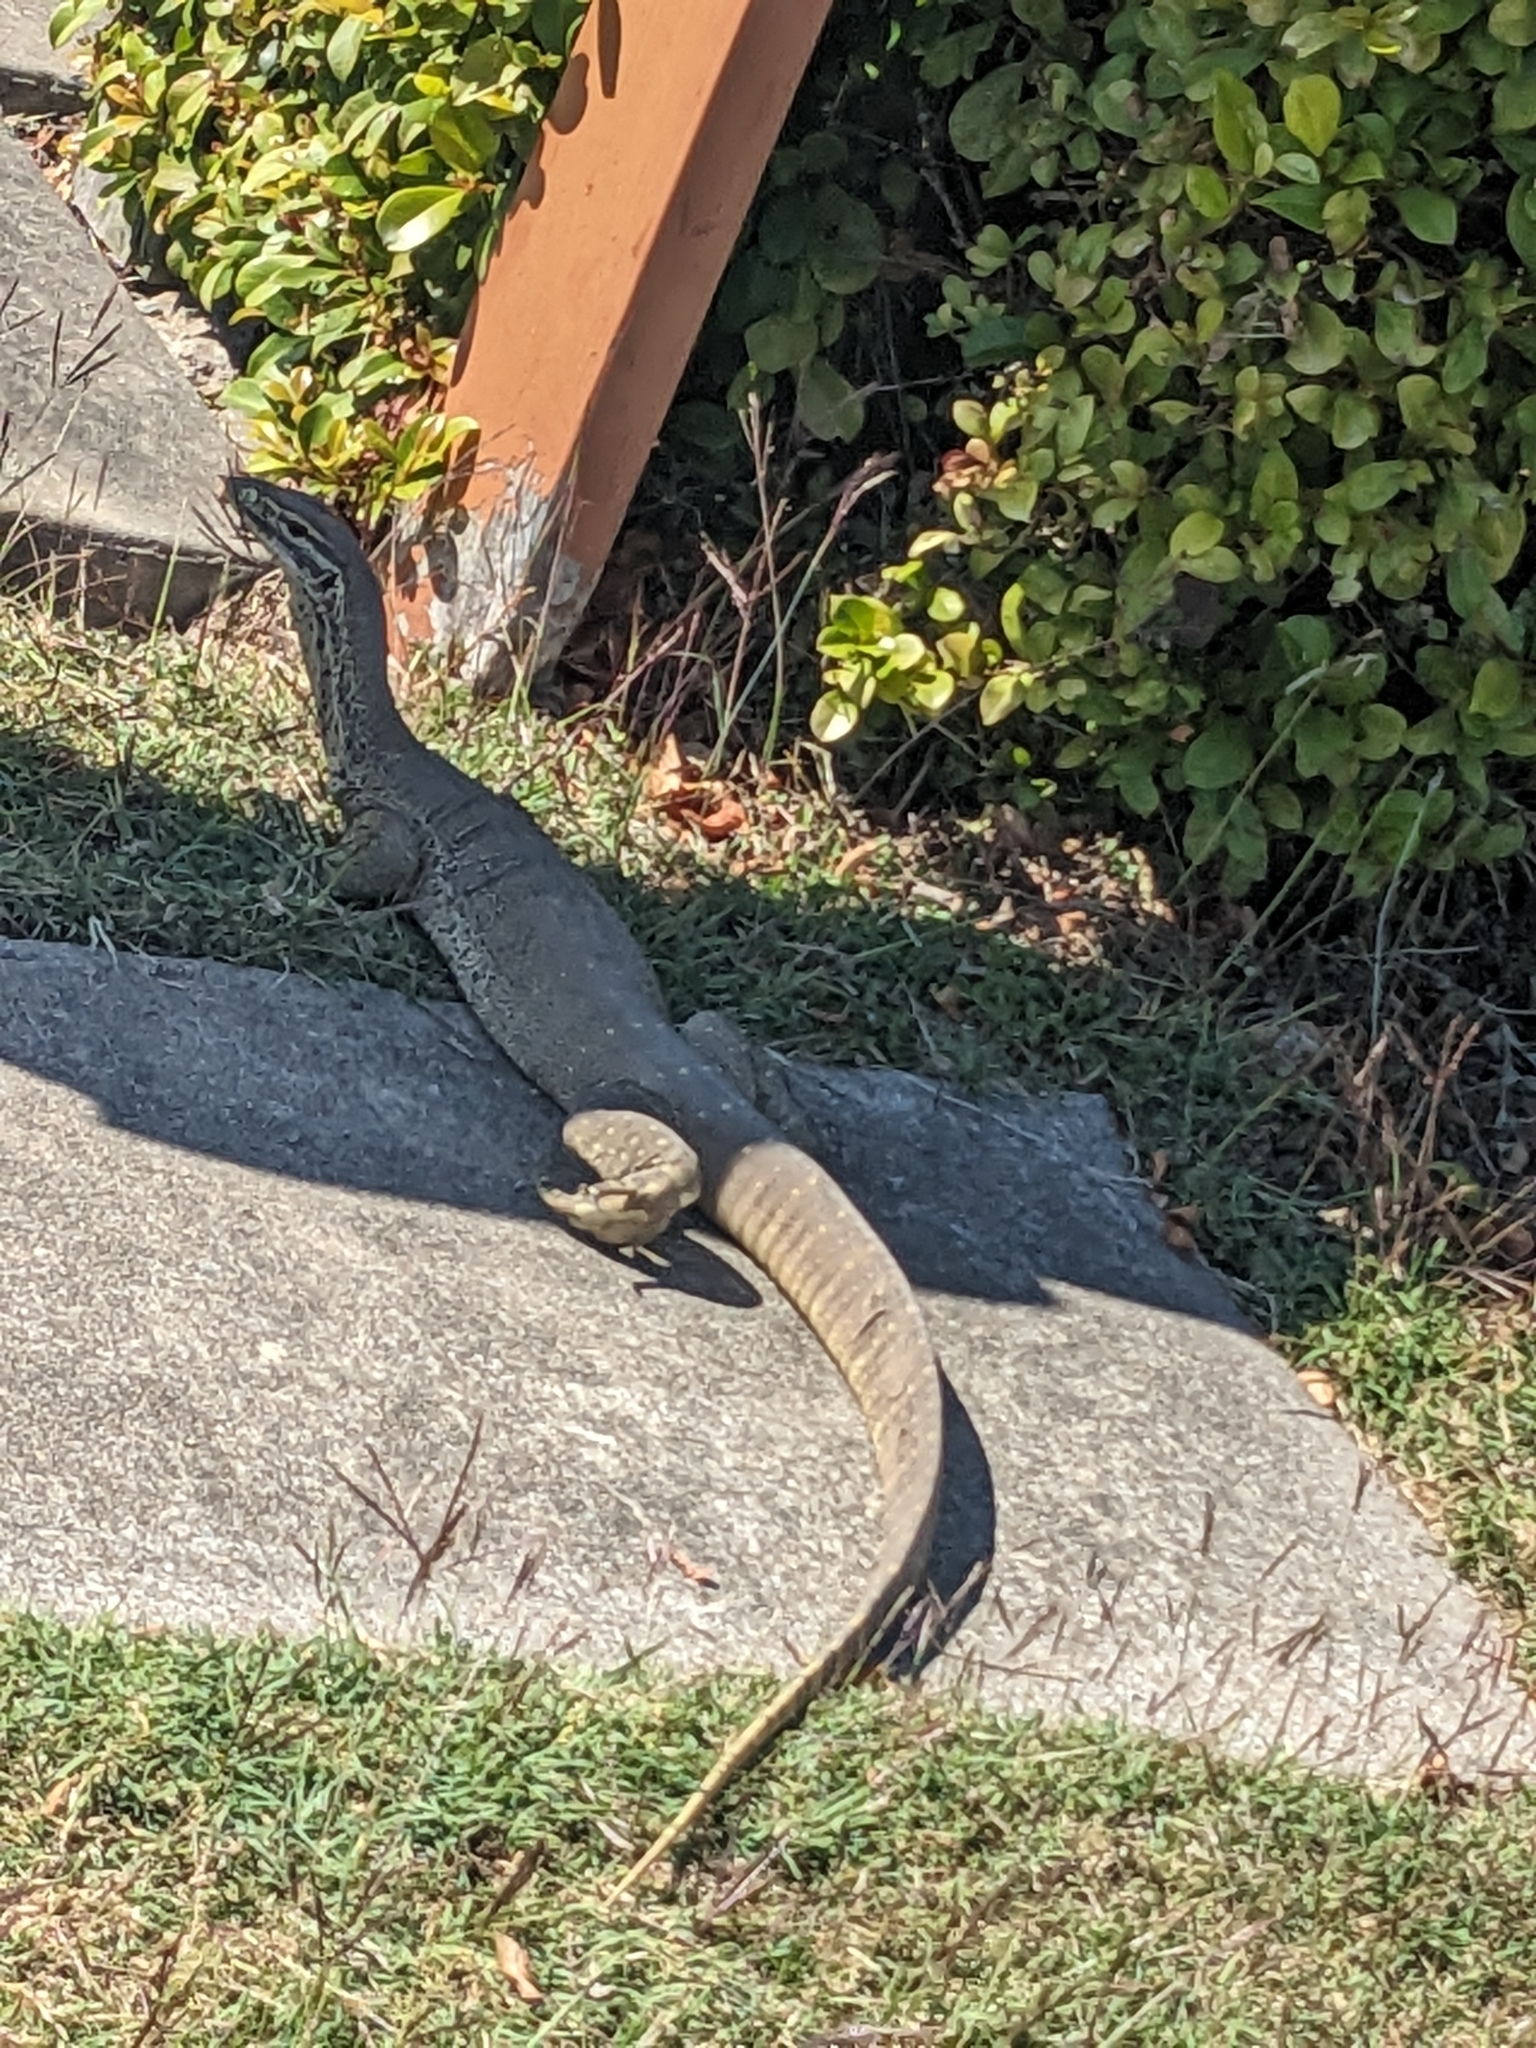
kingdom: Animalia
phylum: Chordata
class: Squamata
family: Varanidae
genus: Varanus
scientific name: Varanus panoptes
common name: Yellow-spotted monitor
